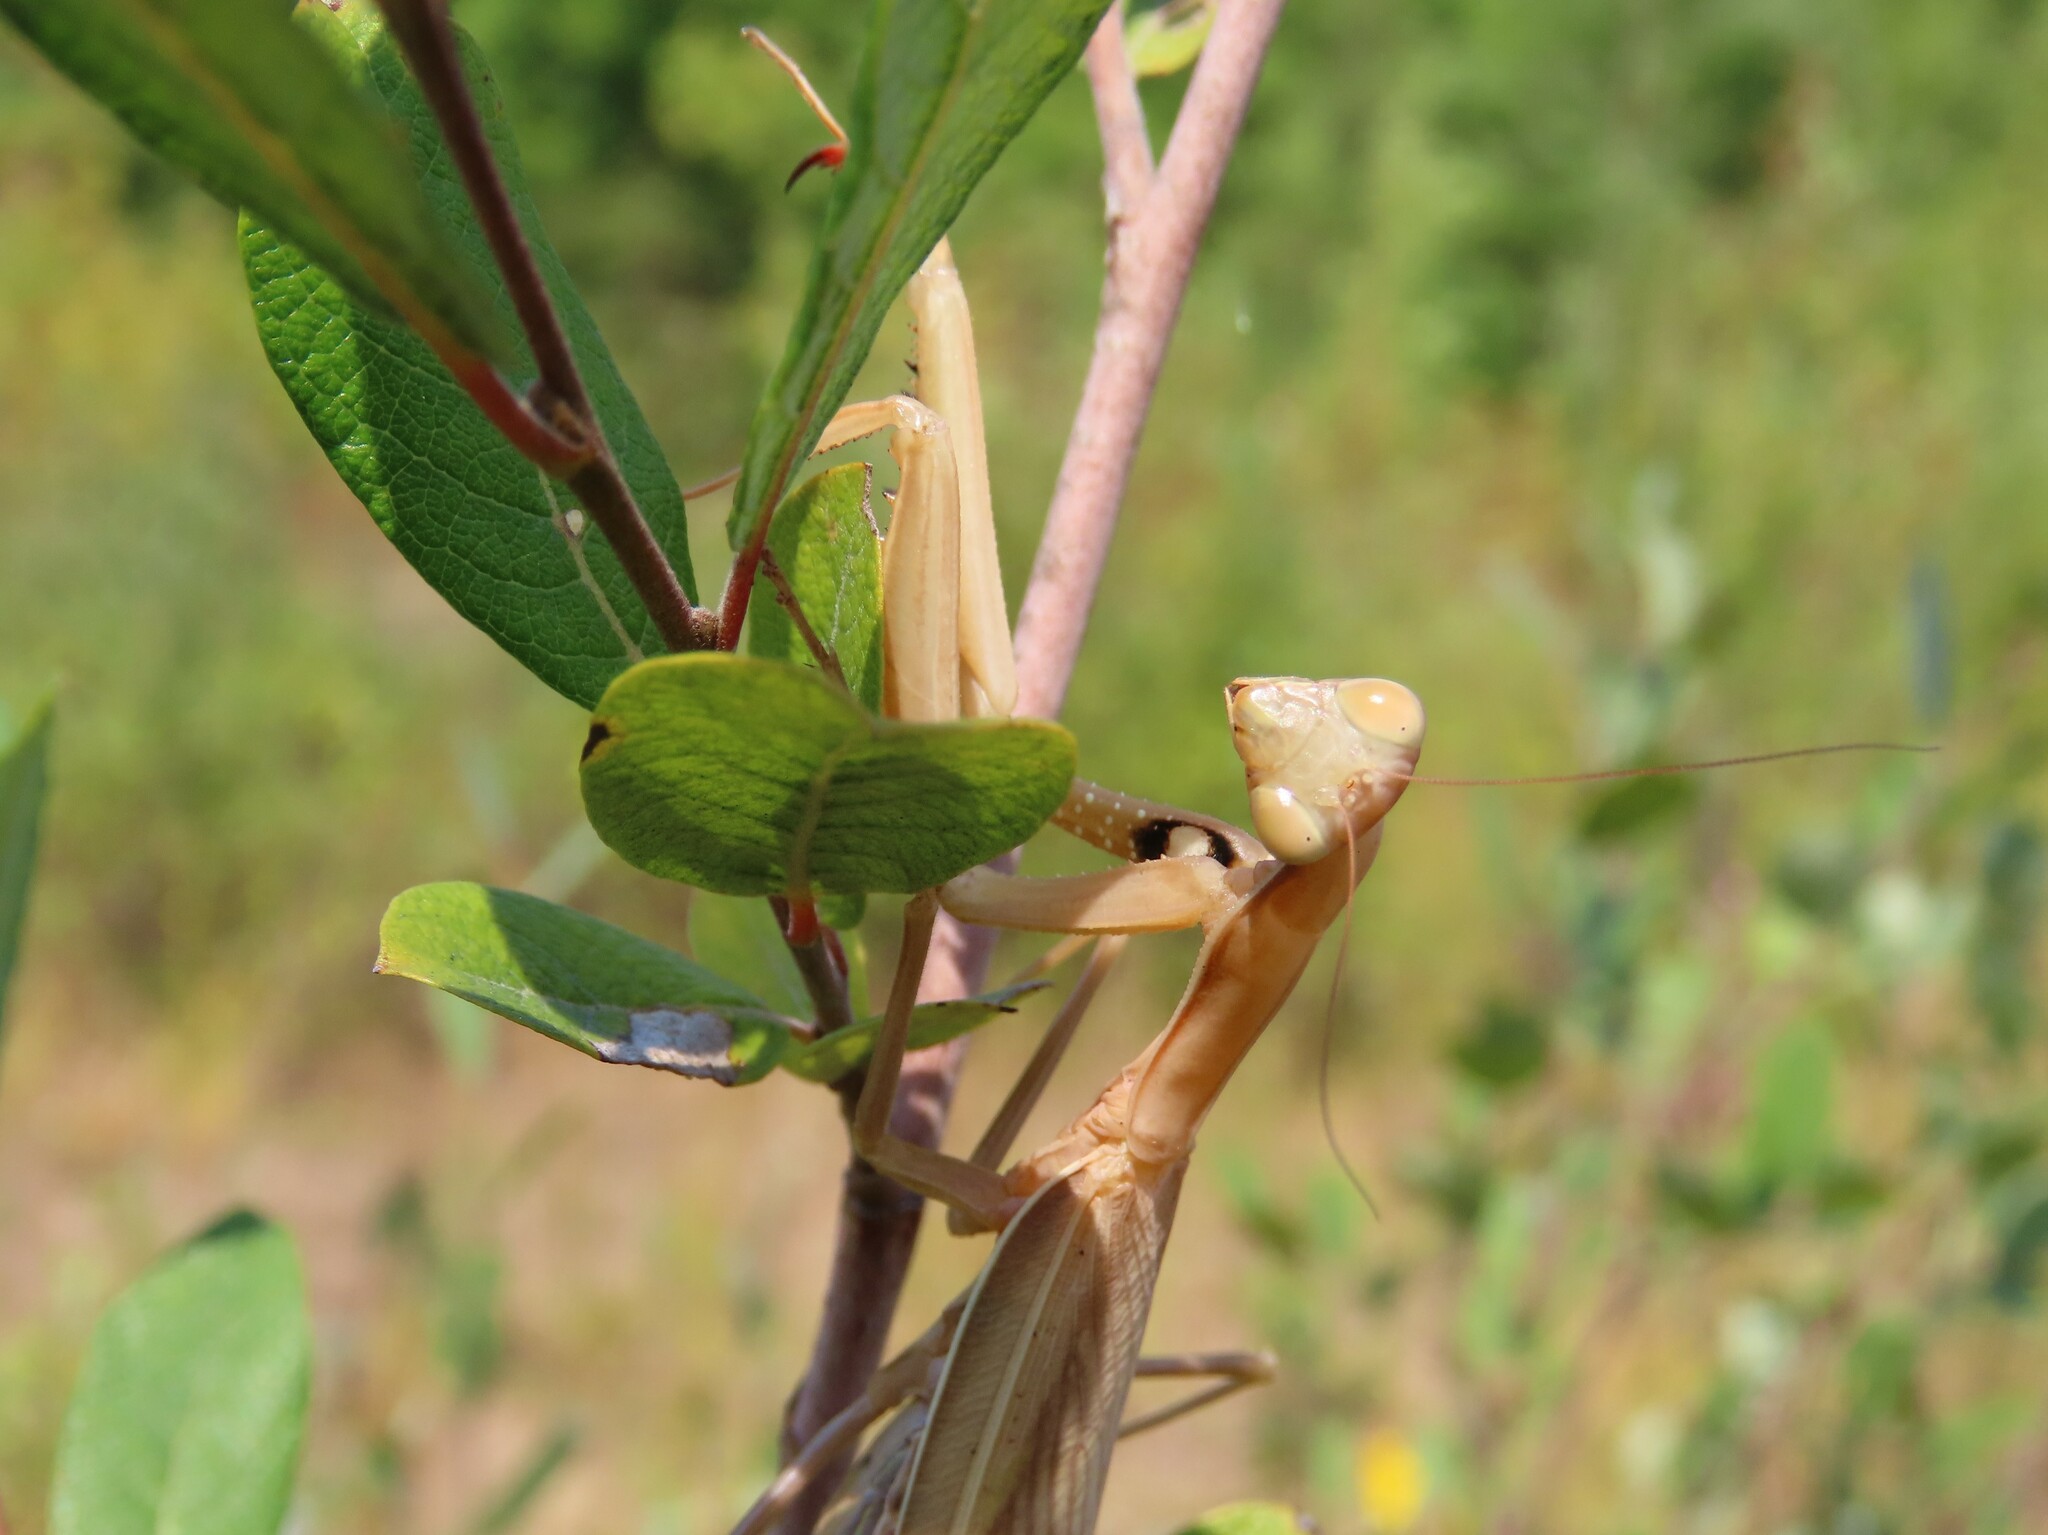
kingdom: Animalia
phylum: Arthropoda
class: Insecta
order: Mantodea
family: Mantidae
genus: Mantis
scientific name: Mantis religiosa
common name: Praying mantis
